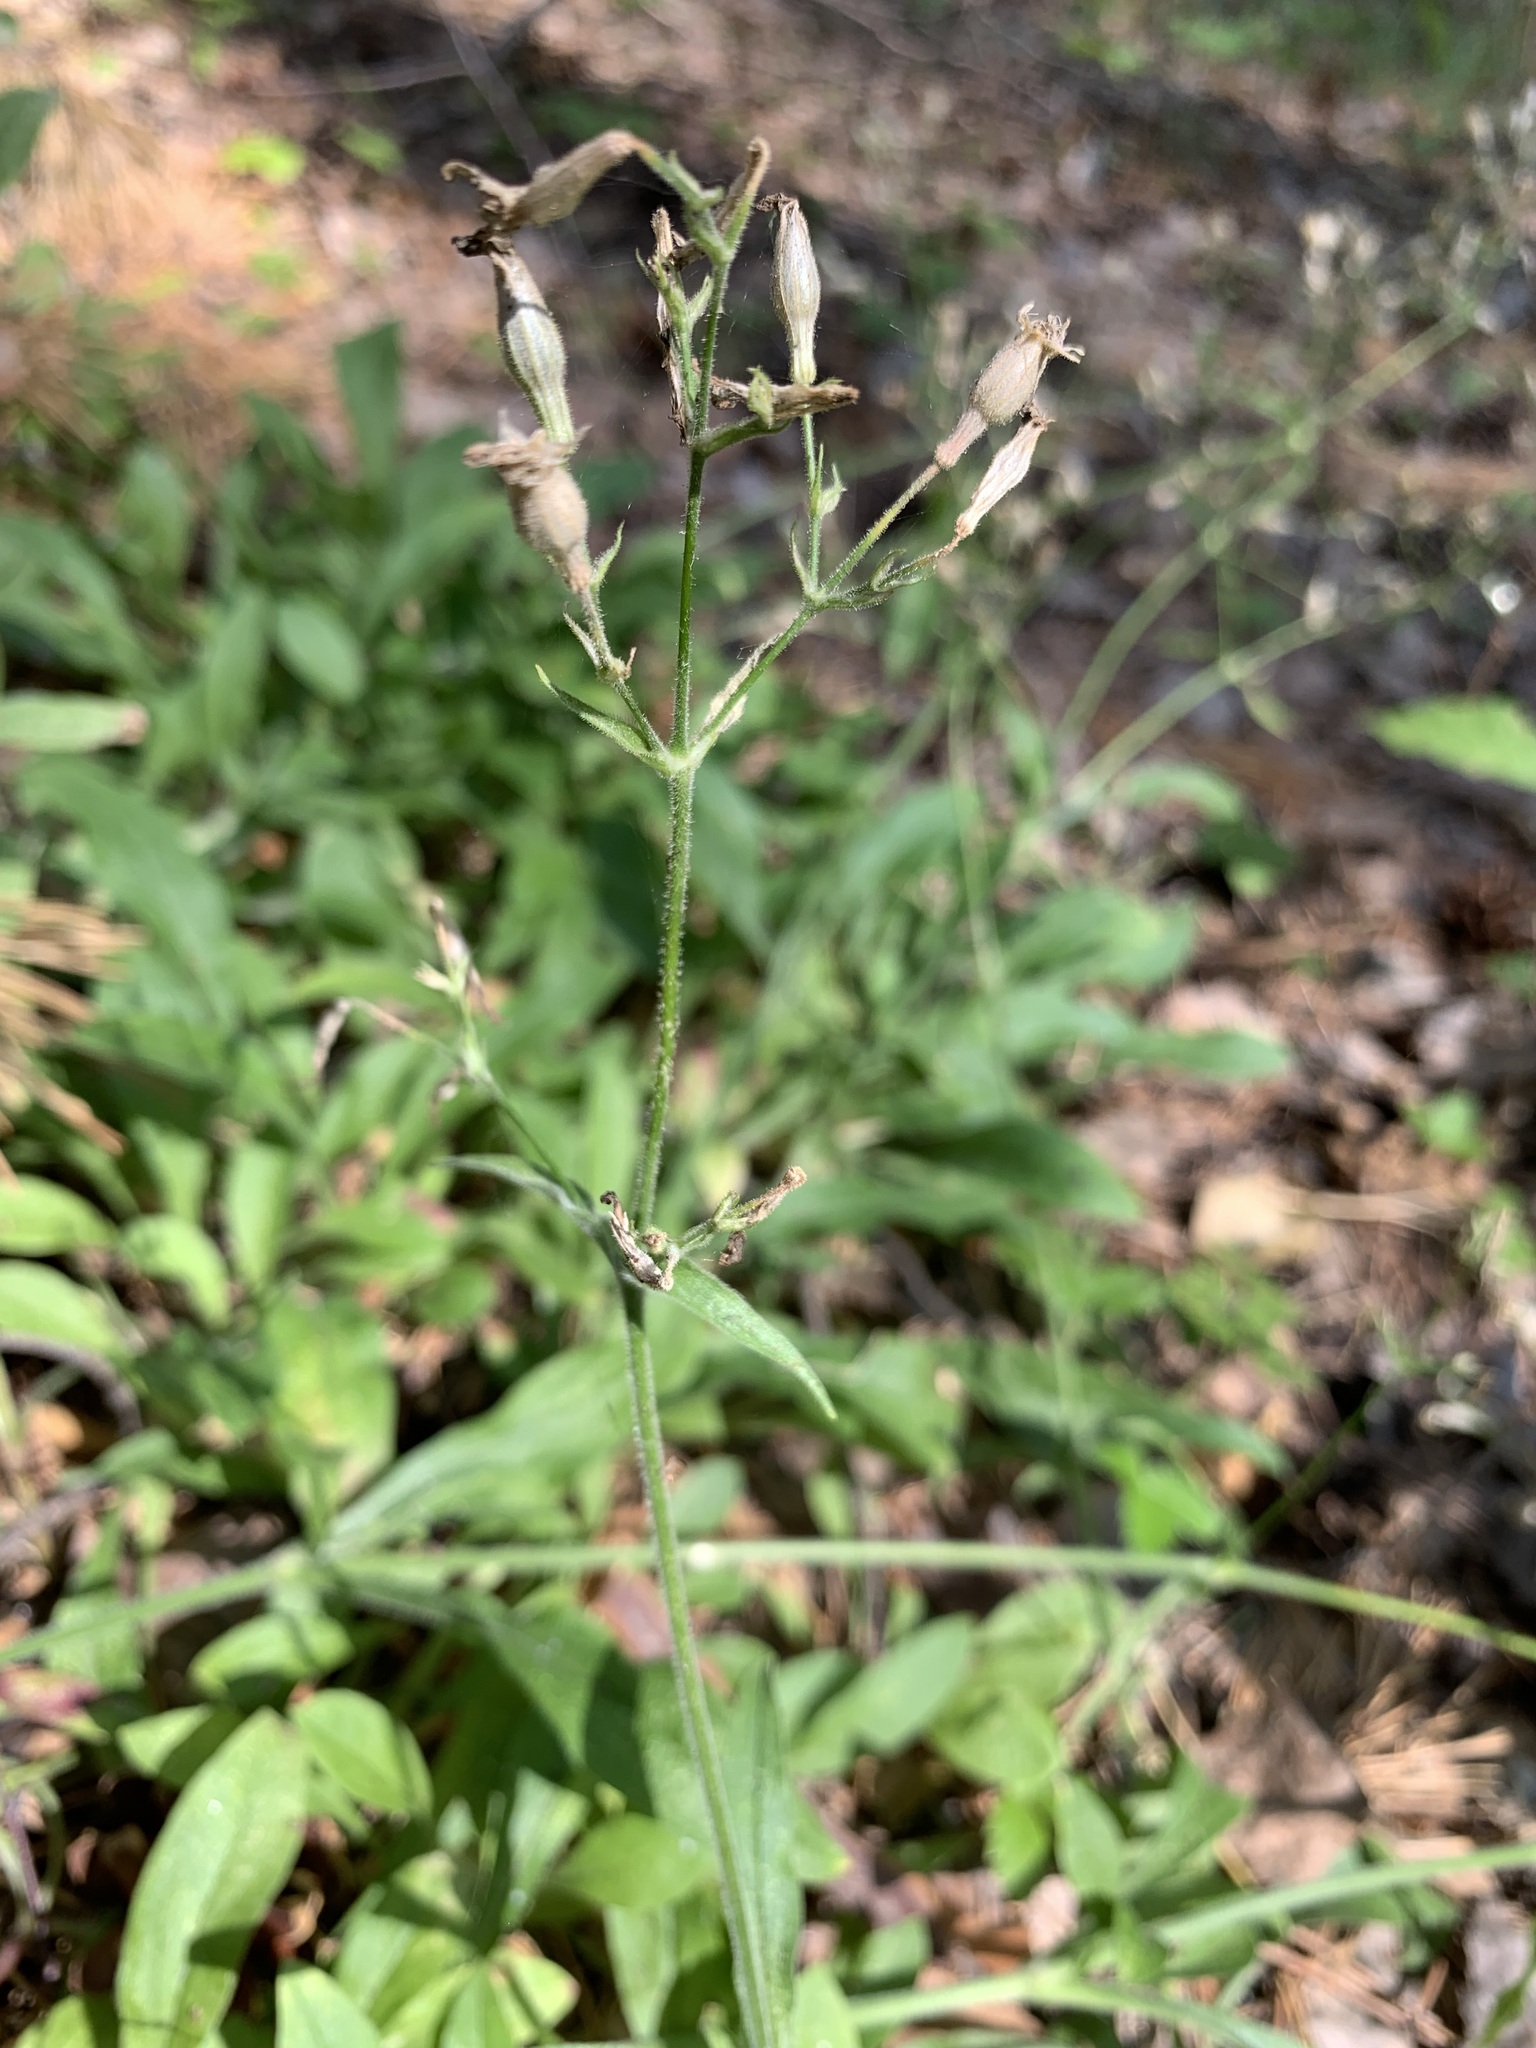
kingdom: Plantae
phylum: Tracheophyta
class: Magnoliopsida
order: Caryophyllales
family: Caryophyllaceae
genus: Silene
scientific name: Silene nutans
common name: Nottingham catchfly
